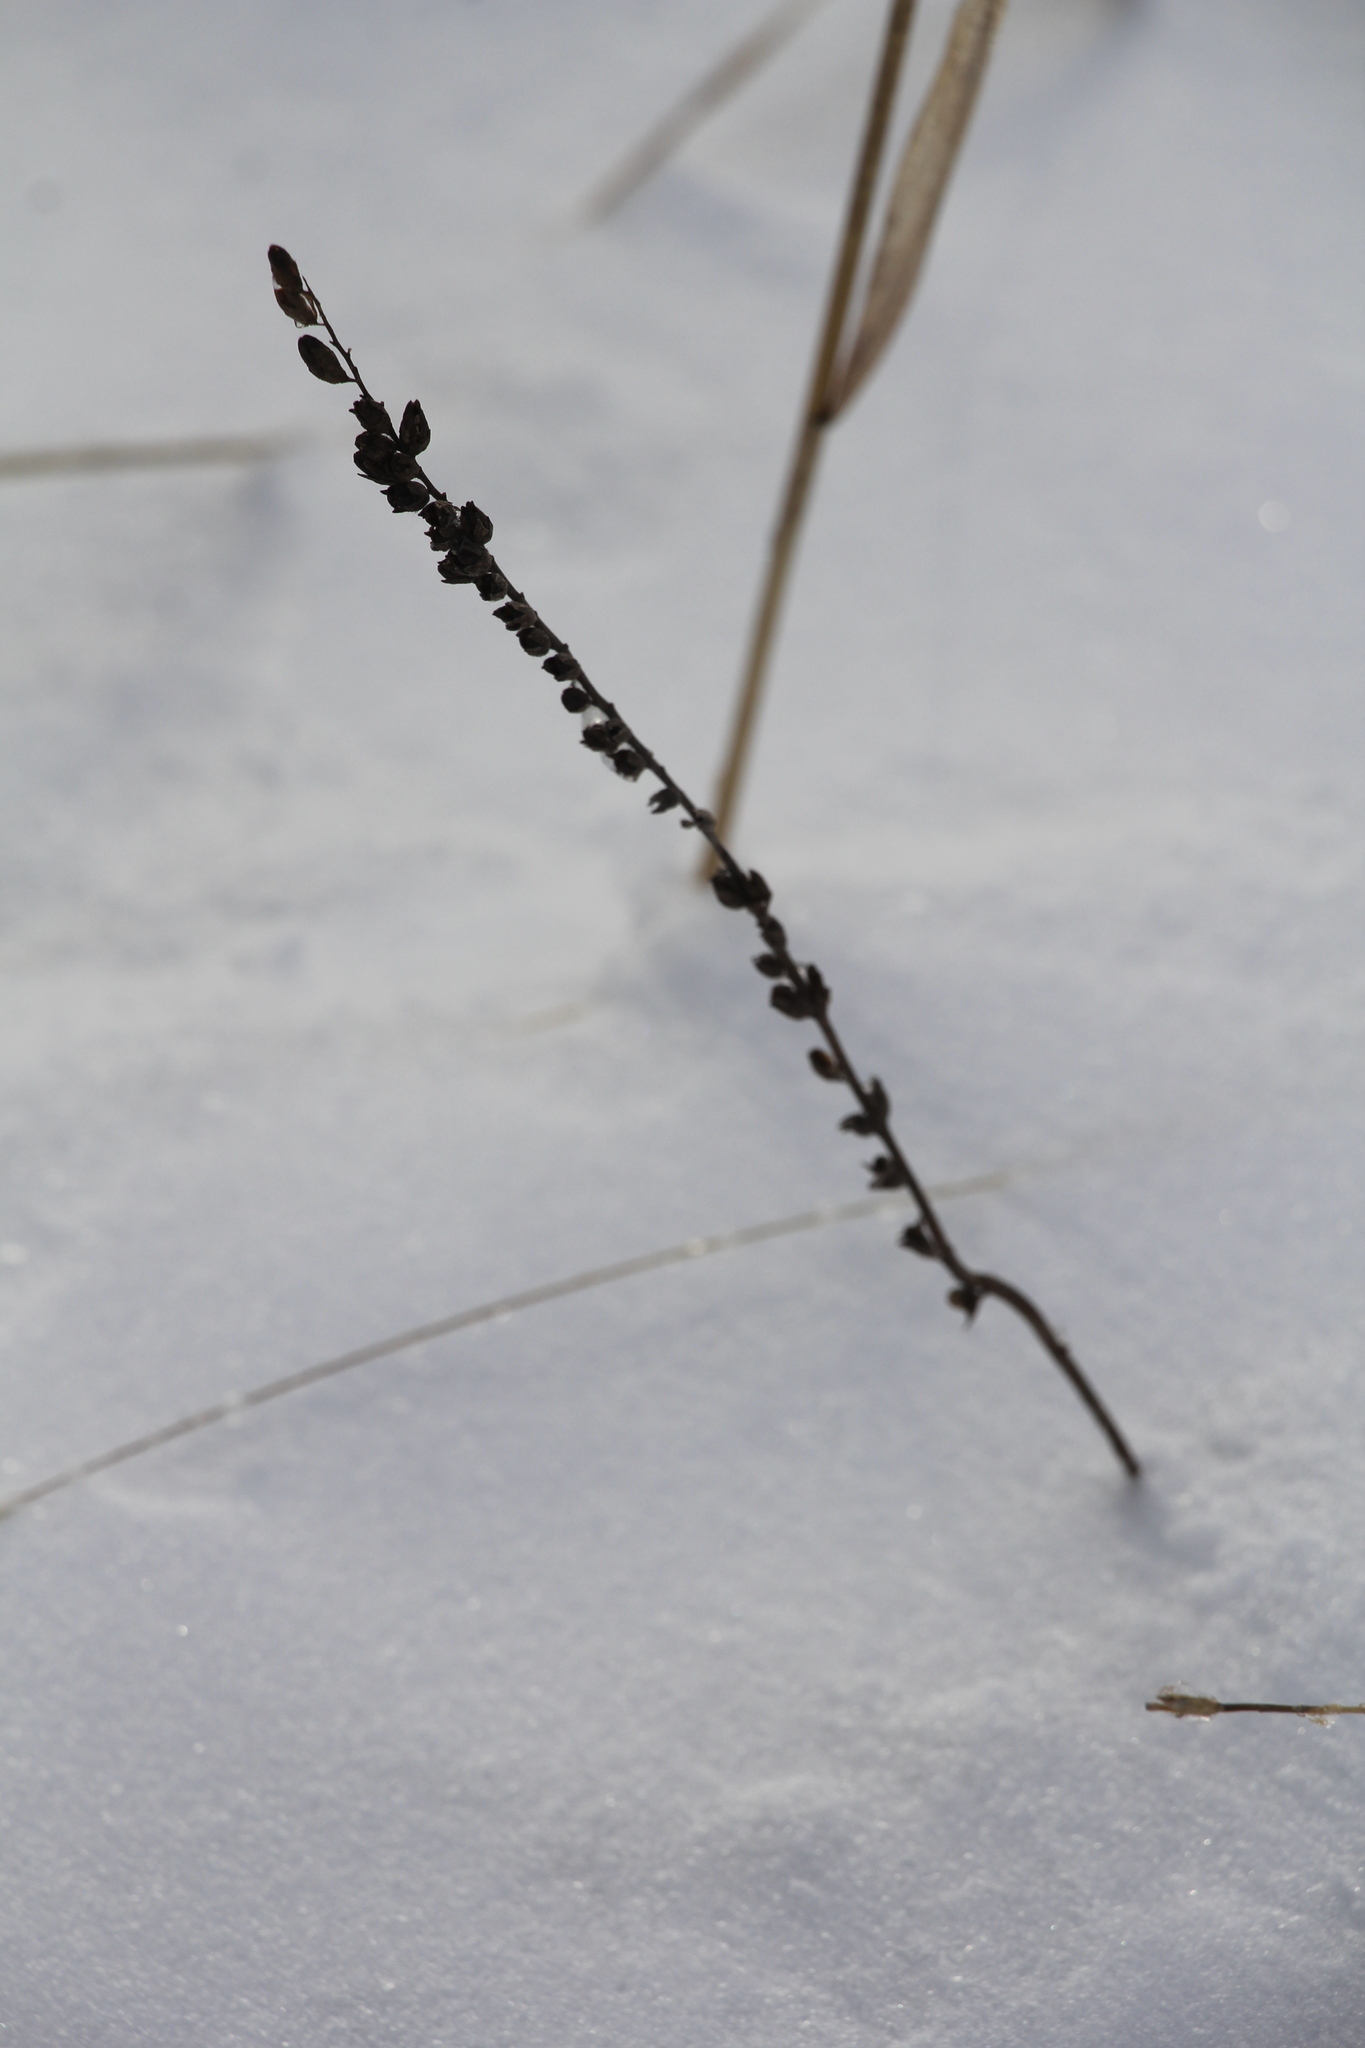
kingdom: Plantae
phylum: Tracheophyta
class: Magnoliopsida
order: Lamiales
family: Orobanchaceae
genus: Odontites
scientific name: Odontites vulgaris
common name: Broomrape
